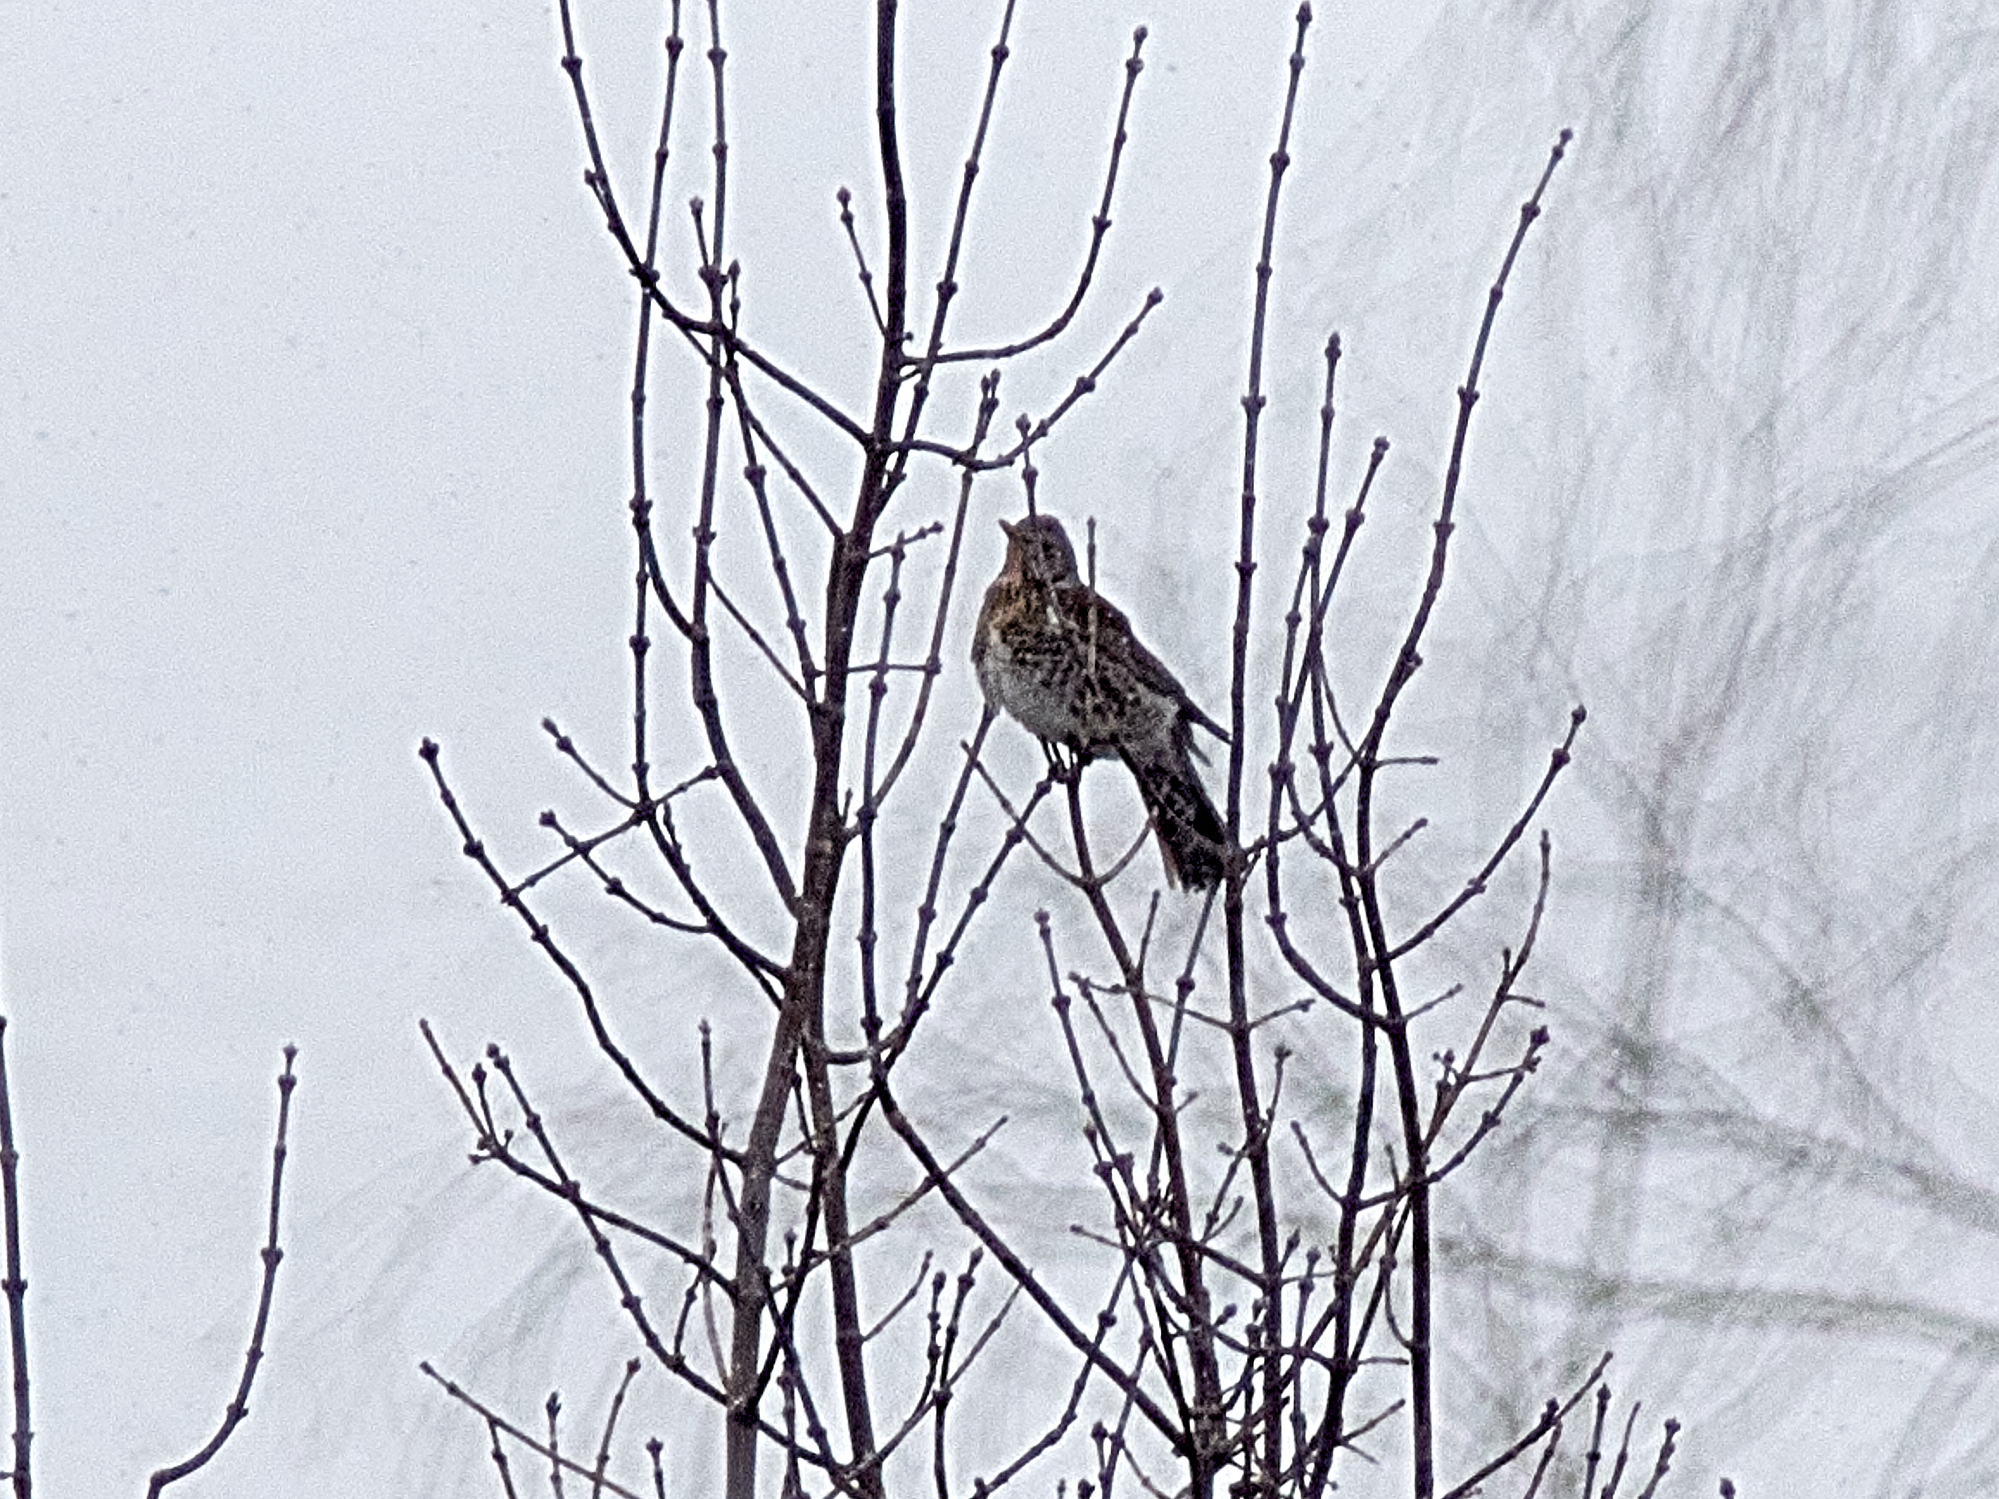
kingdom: Animalia
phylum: Chordata
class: Aves
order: Passeriformes
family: Turdidae
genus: Turdus
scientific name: Turdus pilaris
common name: Fieldfare
